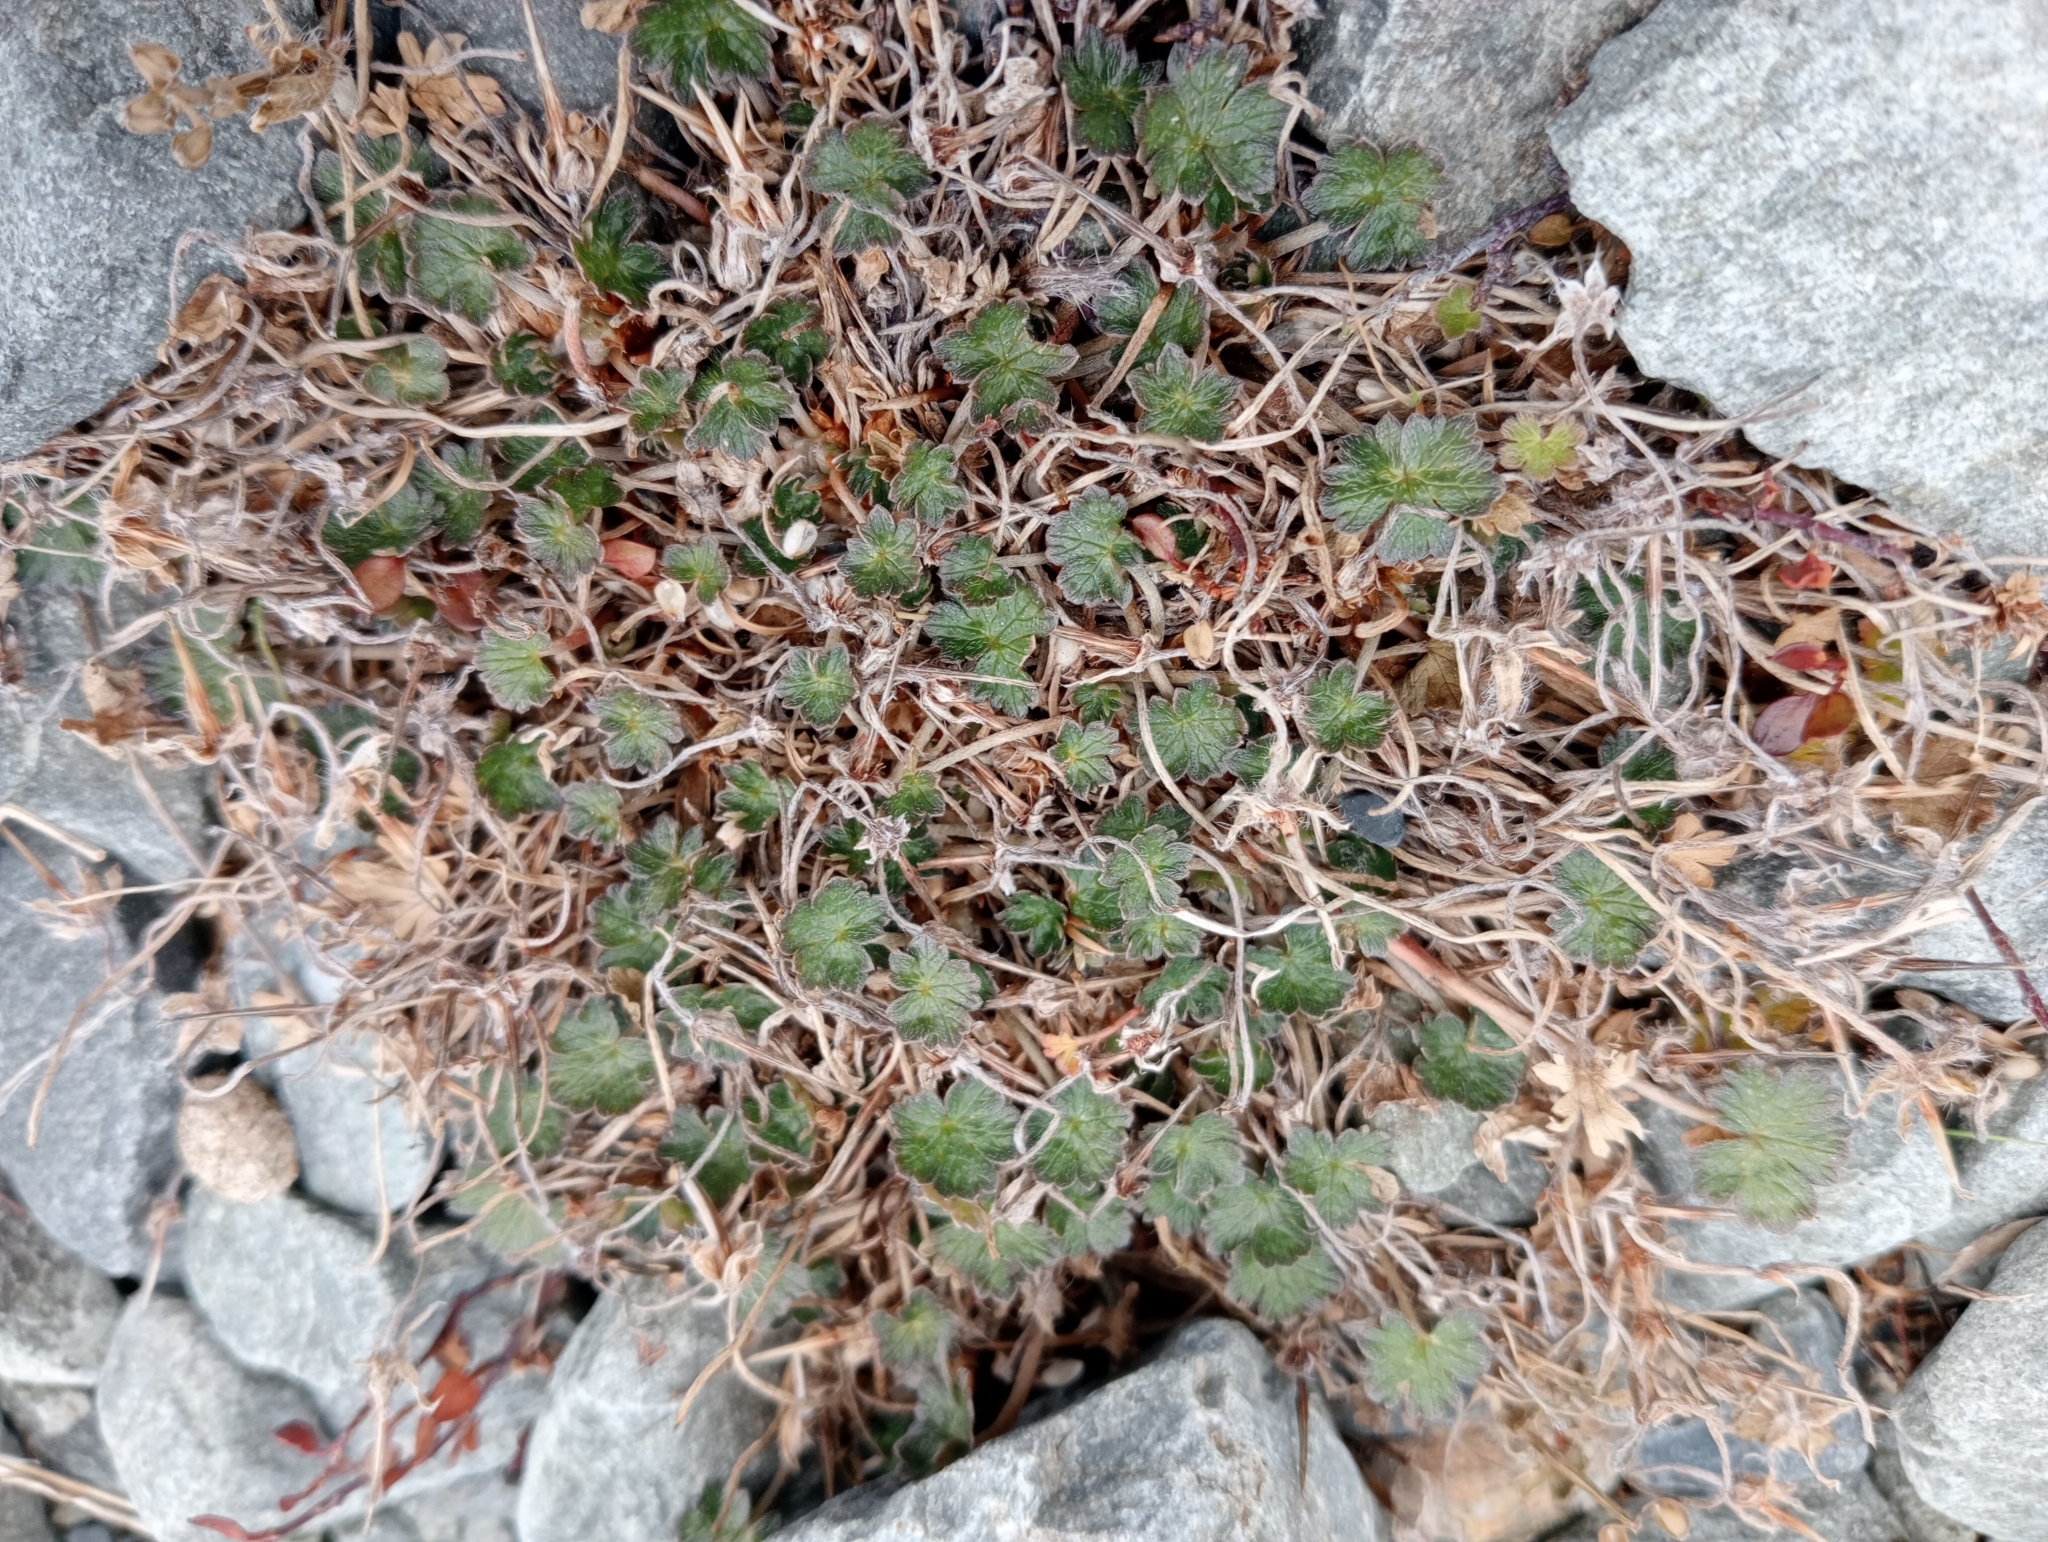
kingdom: Plantae
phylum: Tracheophyta
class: Magnoliopsida
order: Geraniales
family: Geraniaceae
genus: Geranium
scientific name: Geranium brevicaule
